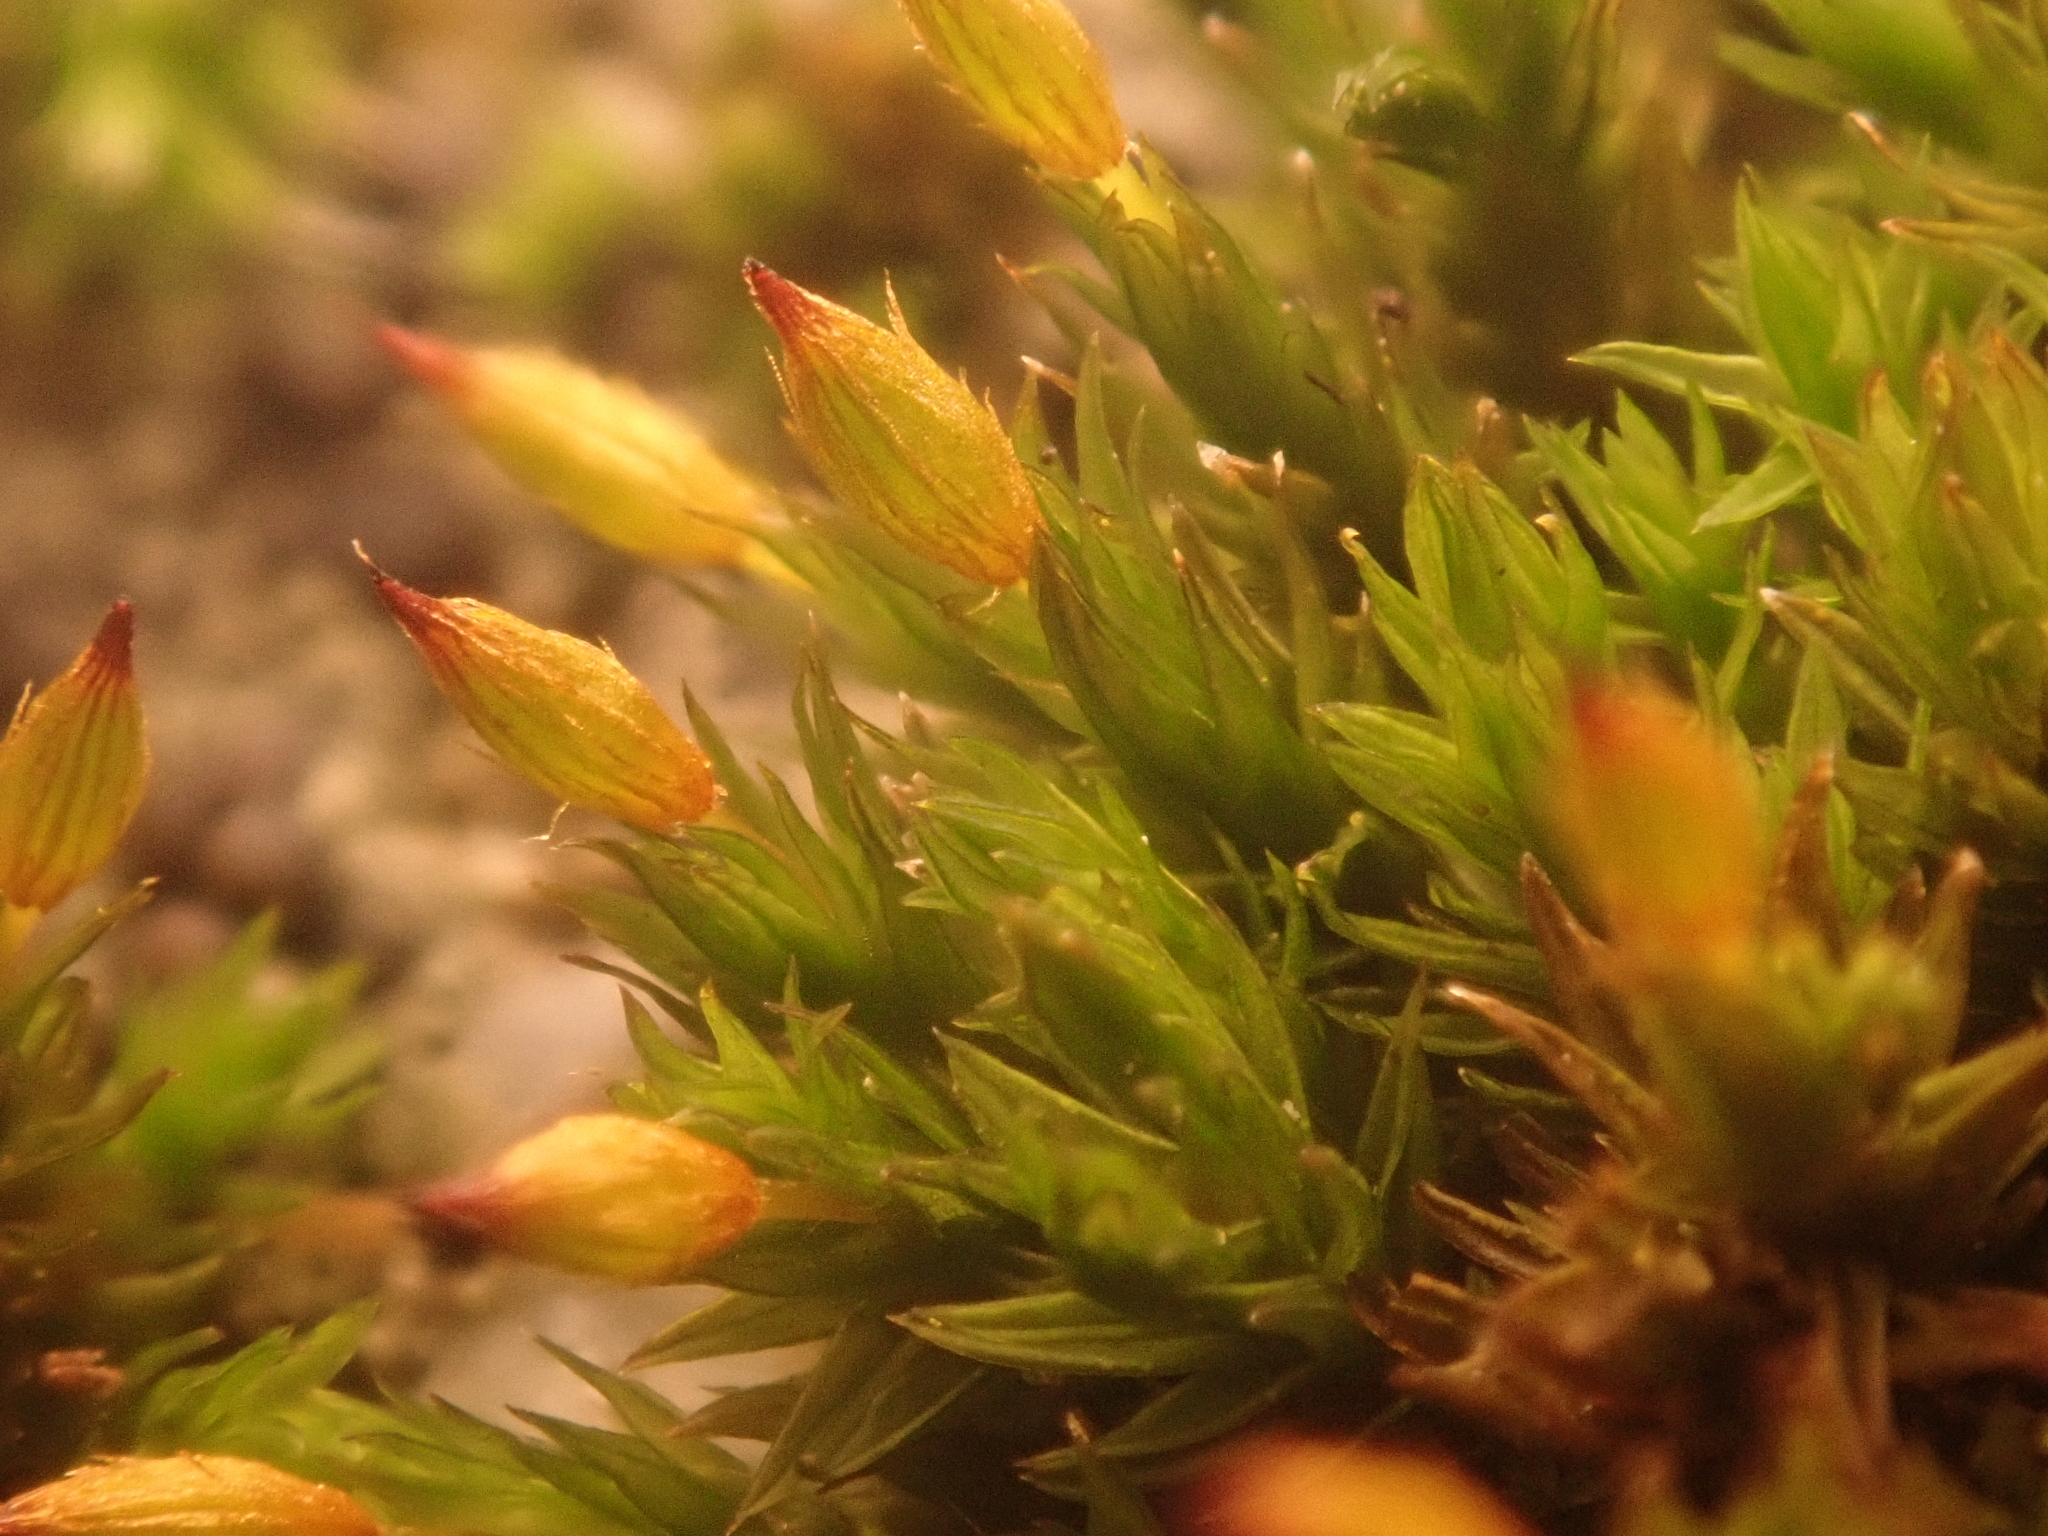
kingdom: Plantae
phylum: Bryophyta
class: Bryopsida
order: Orthotrichales
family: Orthotrichaceae
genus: Orthotrichum
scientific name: Orthotrichum anomalum
